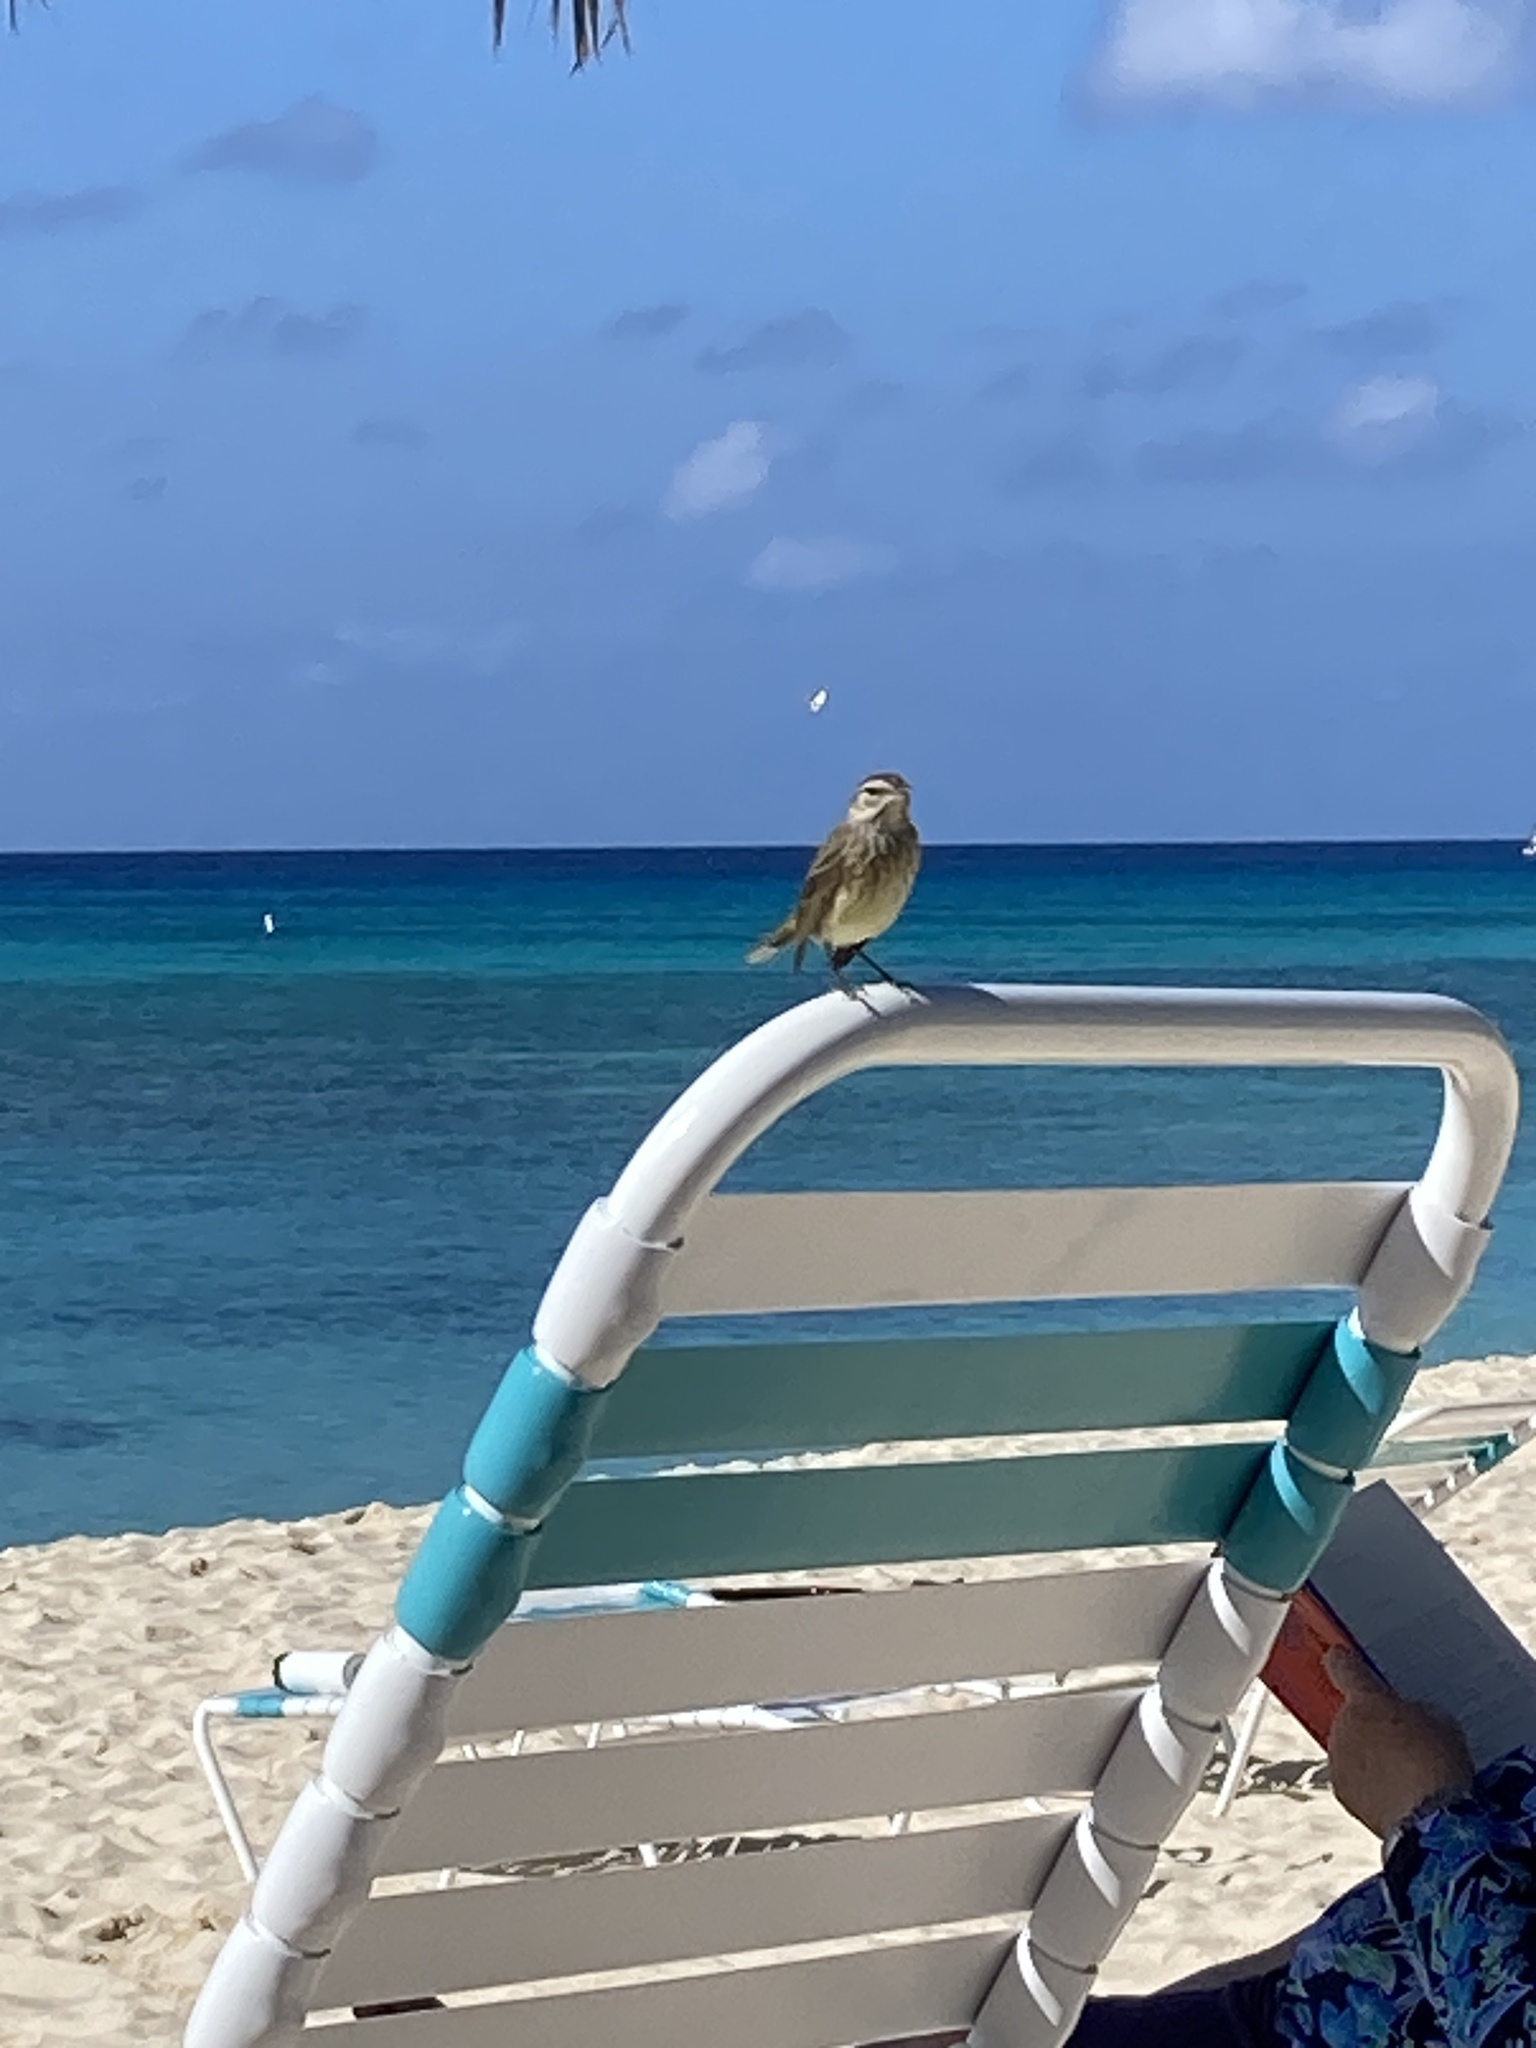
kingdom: Animalia
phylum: Chordata
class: Aves
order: Passeriformes
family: Parulidae
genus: Setophaga
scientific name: Setophaga palmarum
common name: Palm warbler
